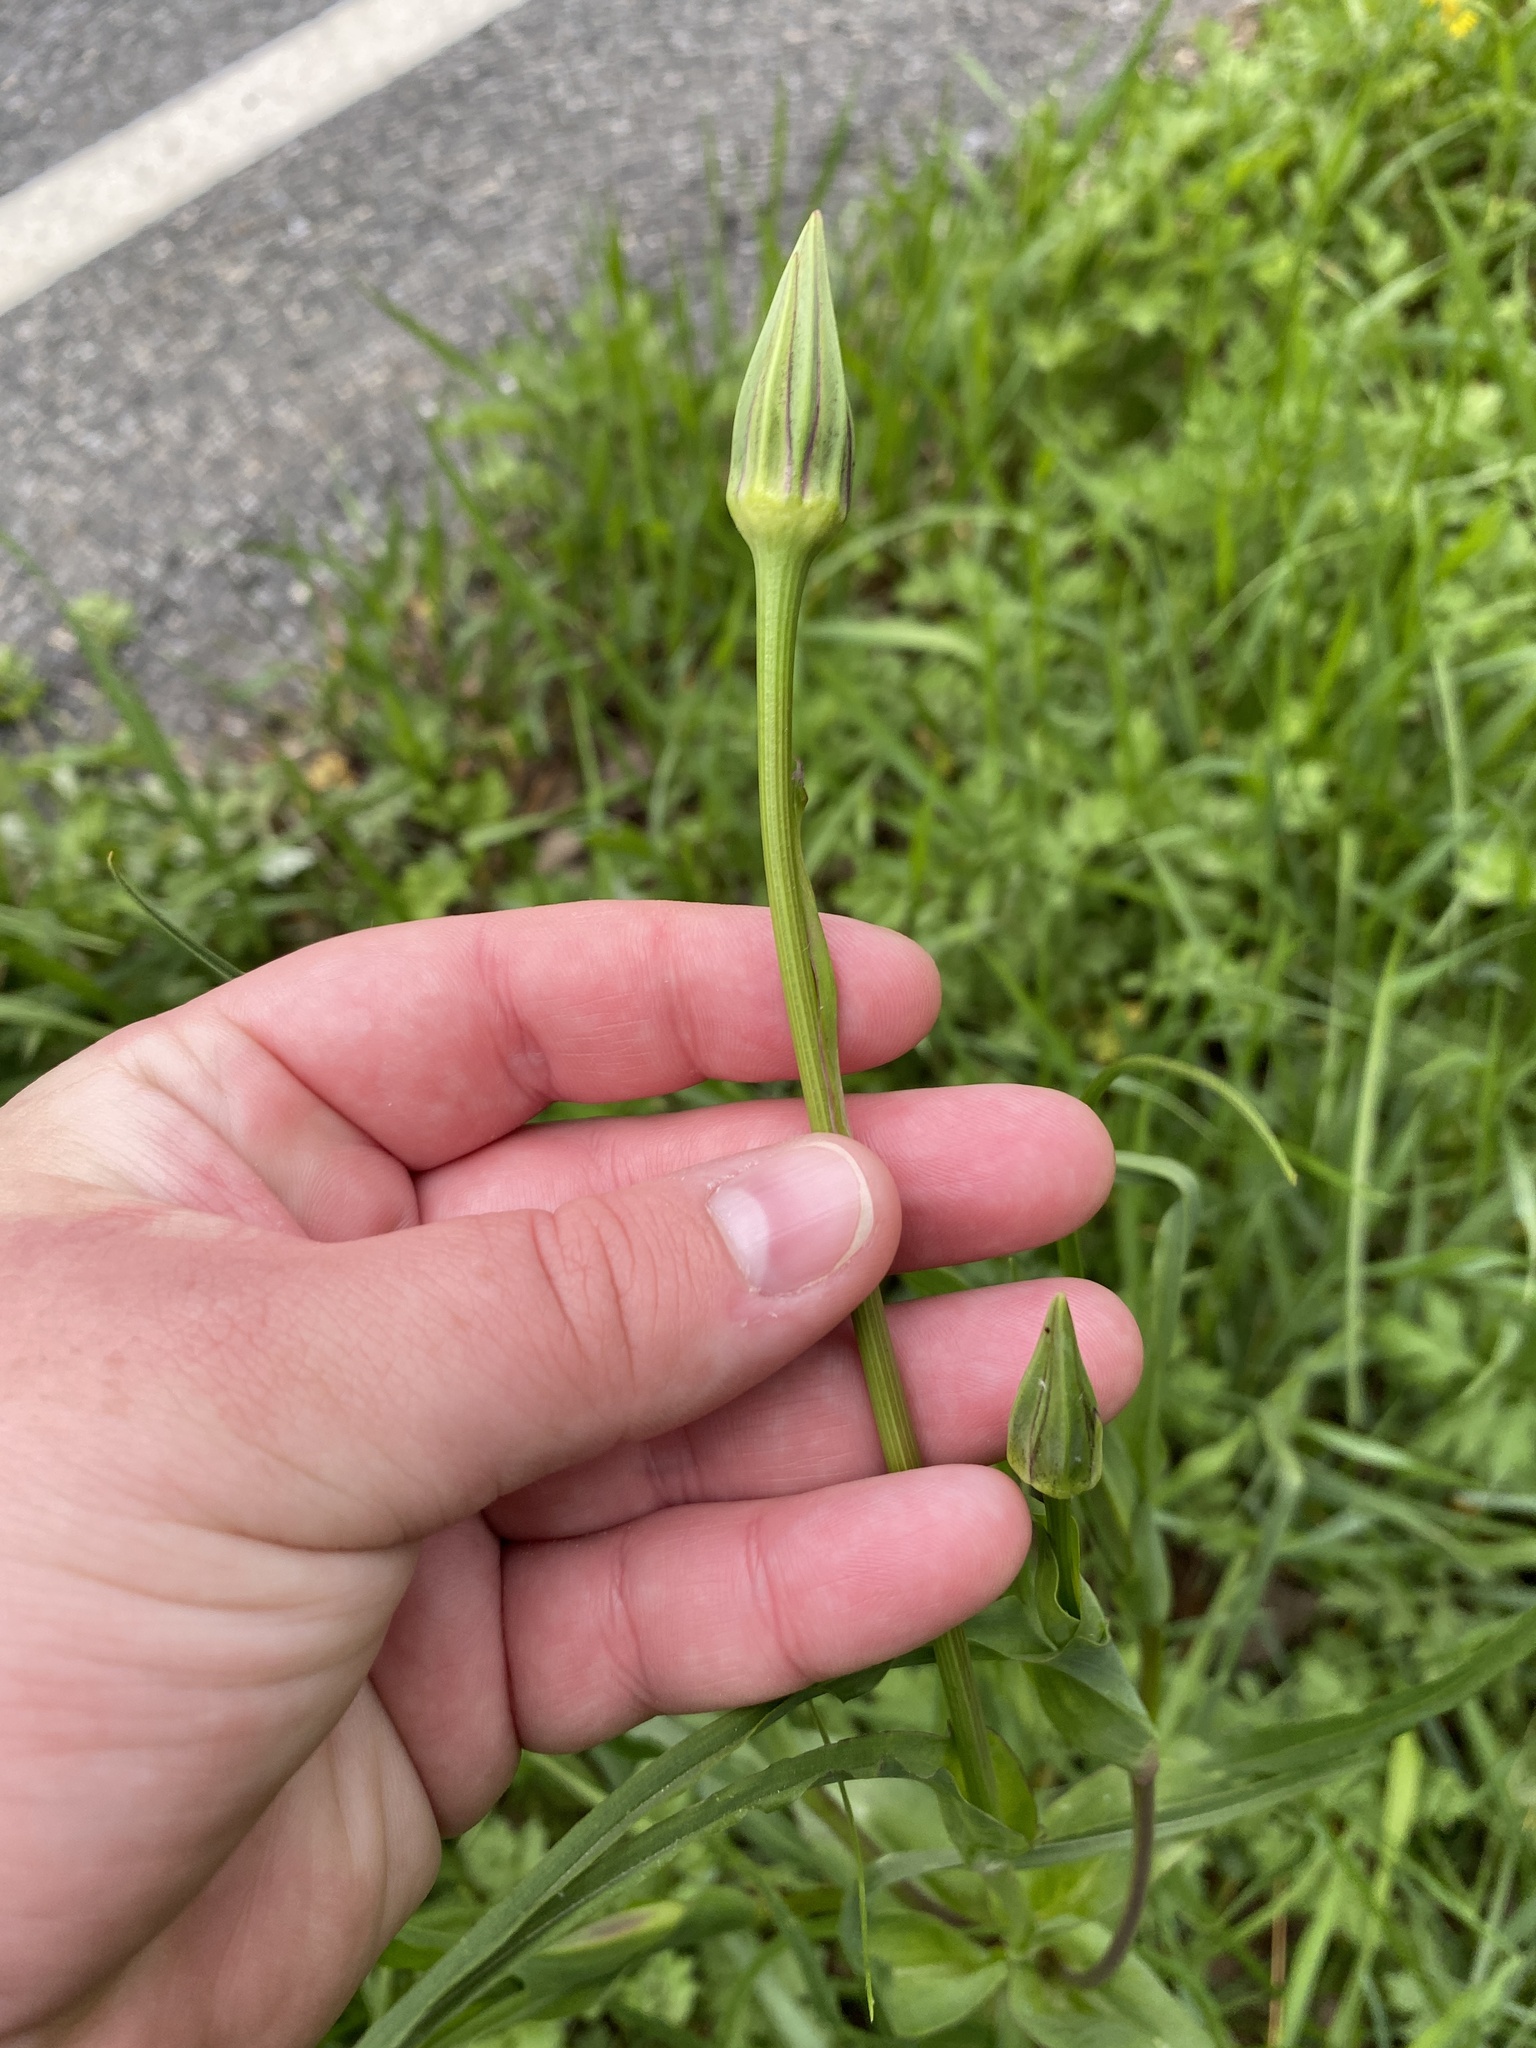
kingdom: Plantae
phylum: Tracheophyta
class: Magnoliopsida
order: Asterales
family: Asteraceae
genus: Tragopogon
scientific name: Tragopogon pratensis
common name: Goat's-beard
